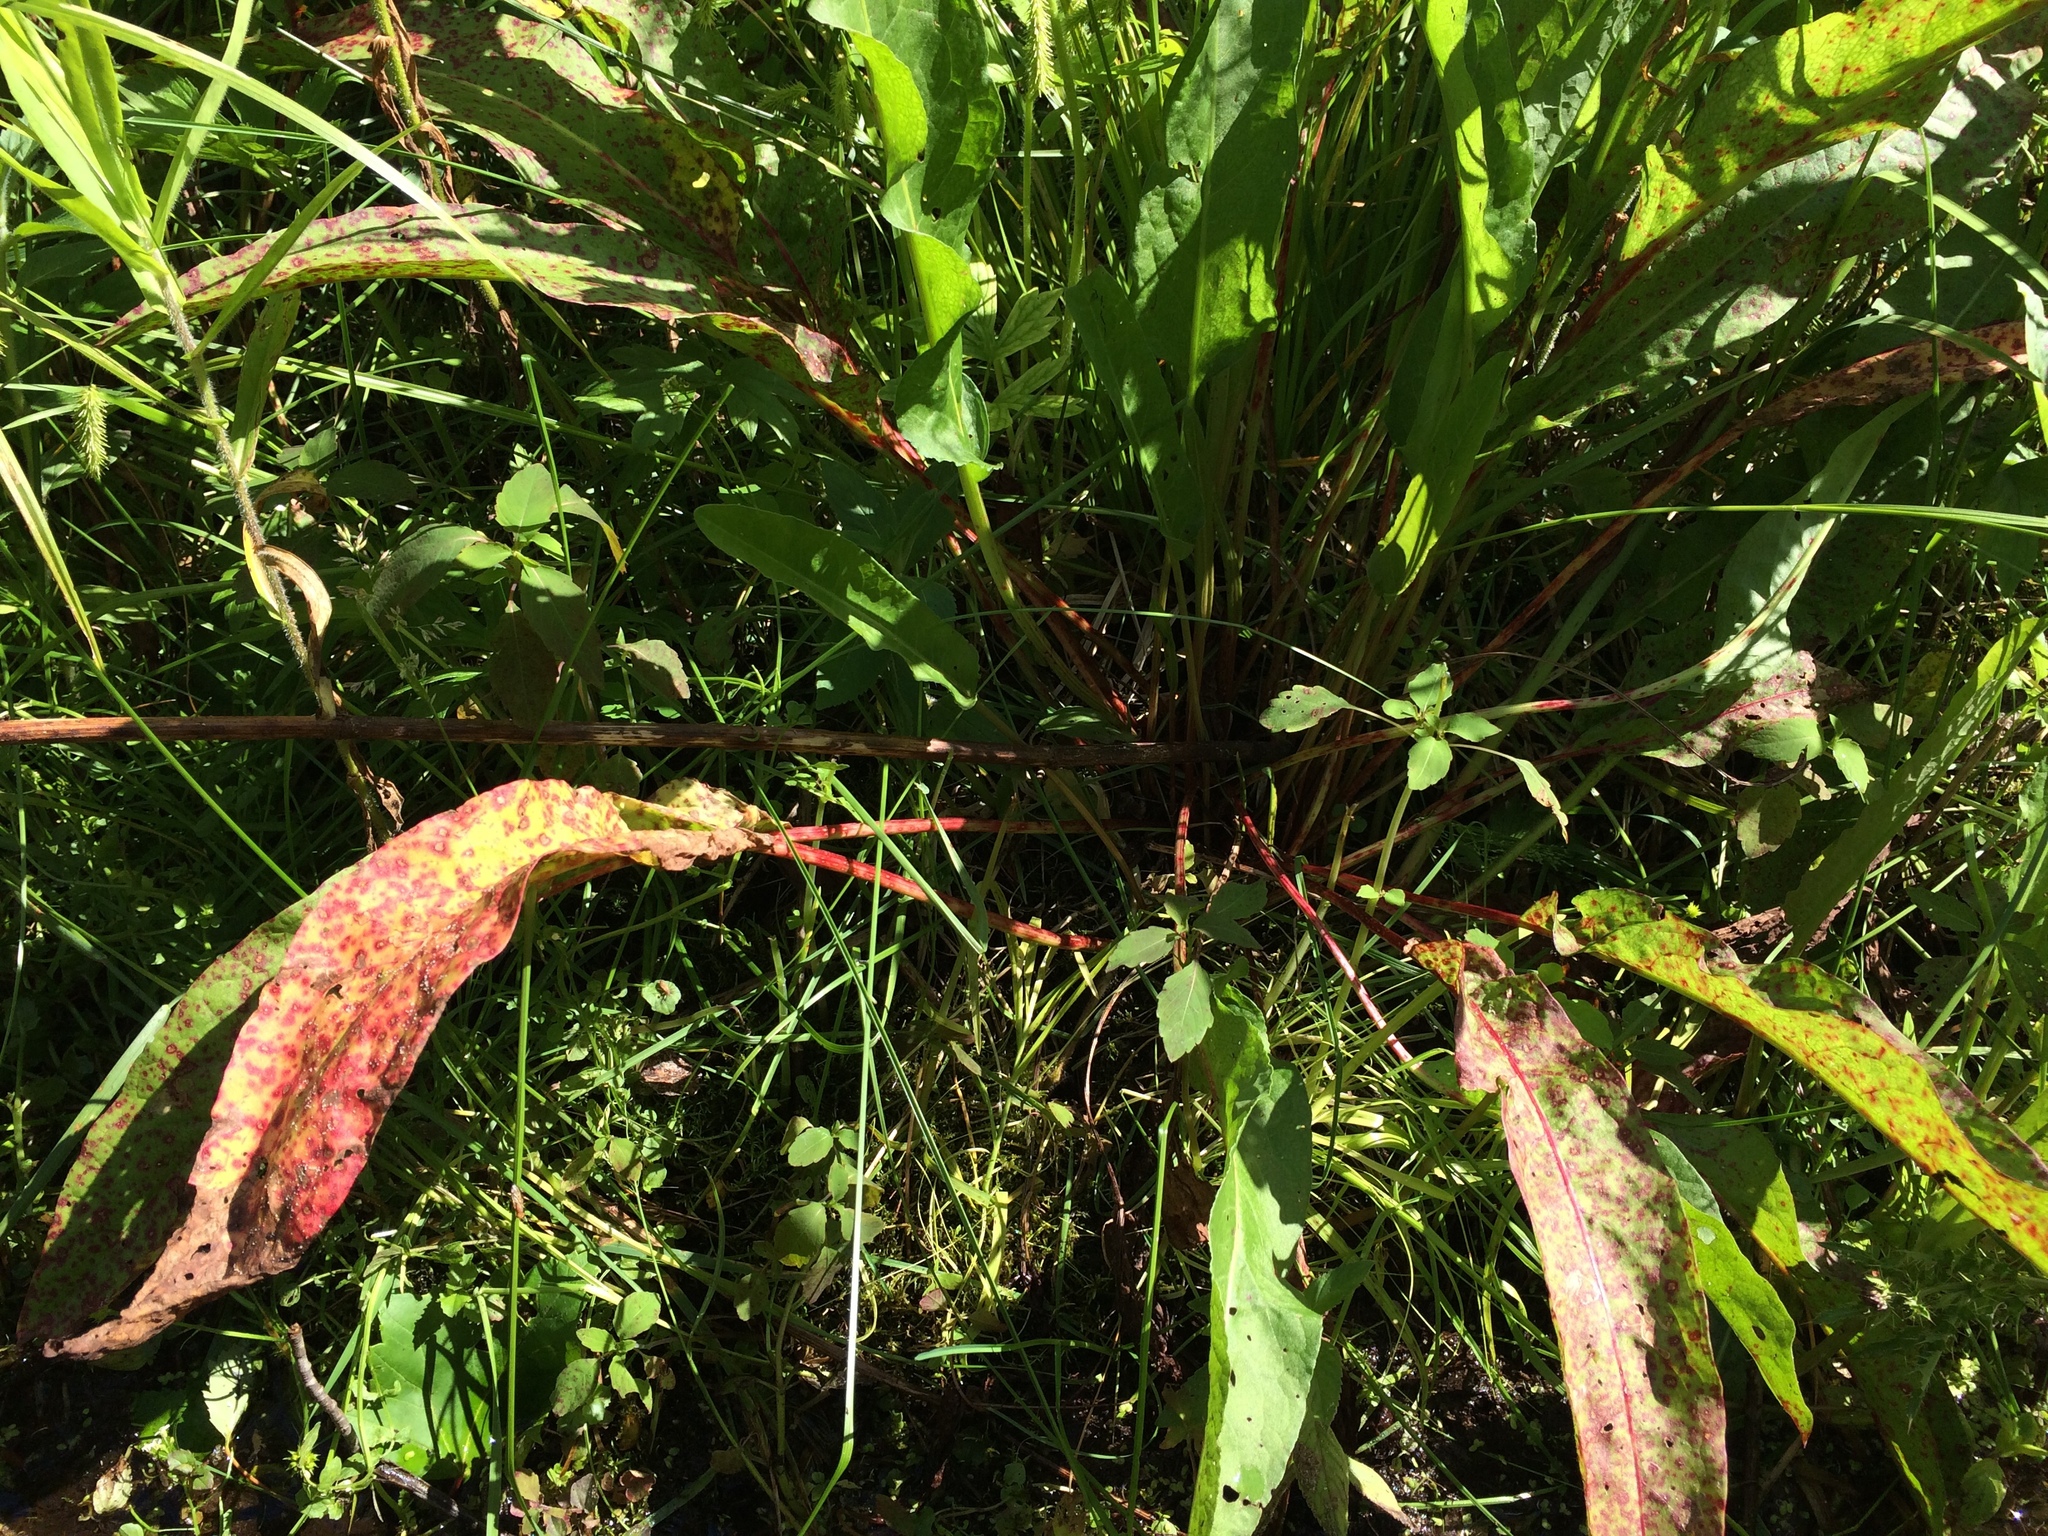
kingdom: Plantae
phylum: Tracheophyta
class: Magnoliopsida
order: Caryophyllales
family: Polygonaceae
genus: Rumex
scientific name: Rumex crispus
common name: Curled dock
